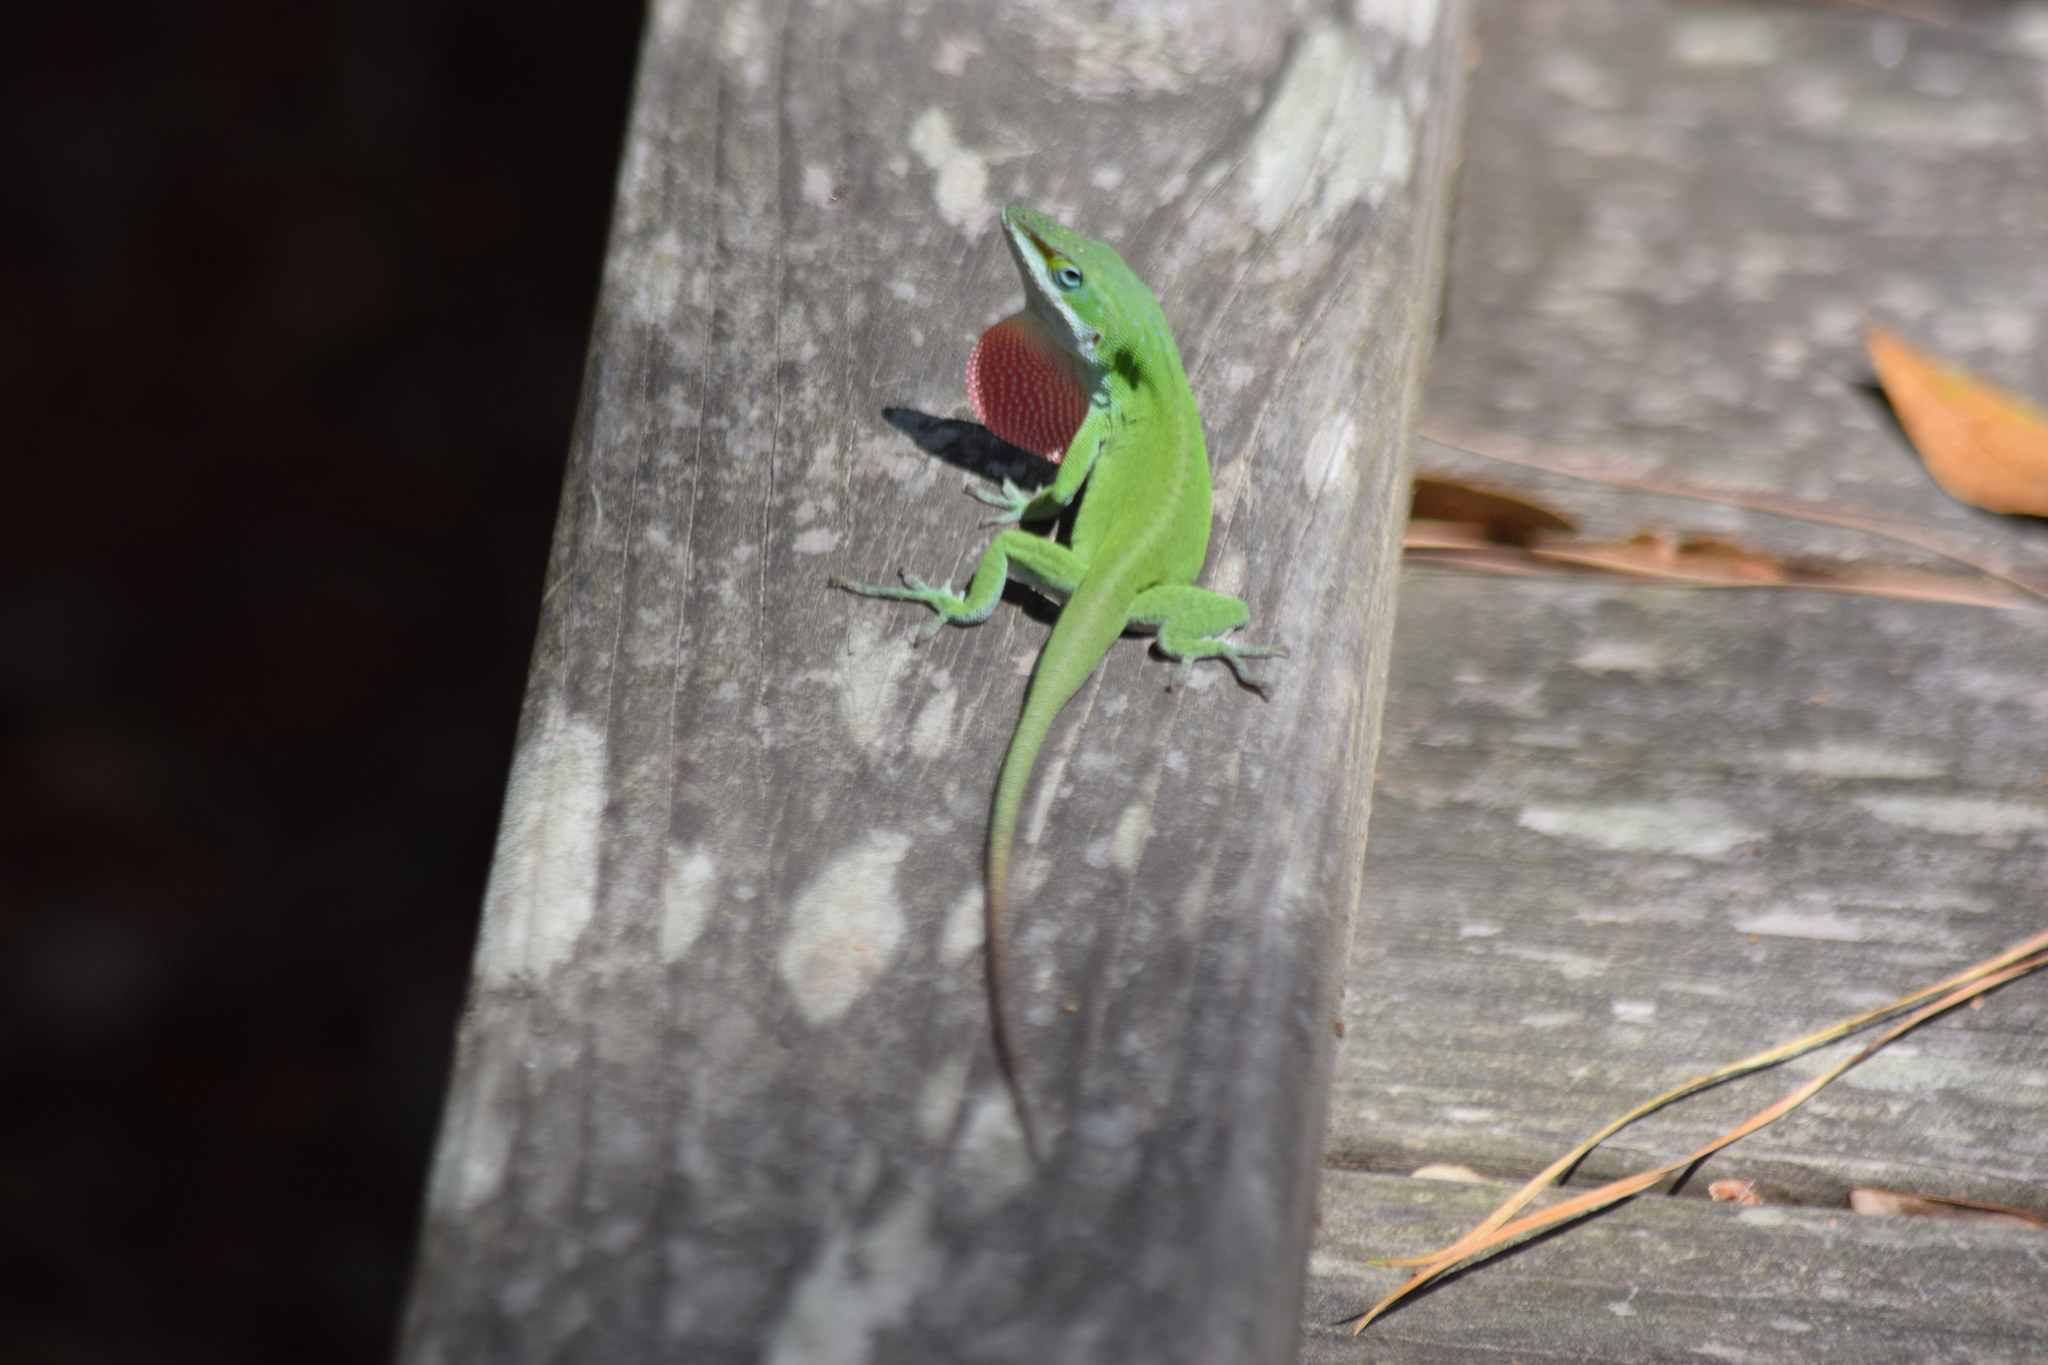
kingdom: Animalia
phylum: Chordata
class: Squamata
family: Dactyloidae
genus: Anolis
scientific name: Anolis carolinensis
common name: Green anole
